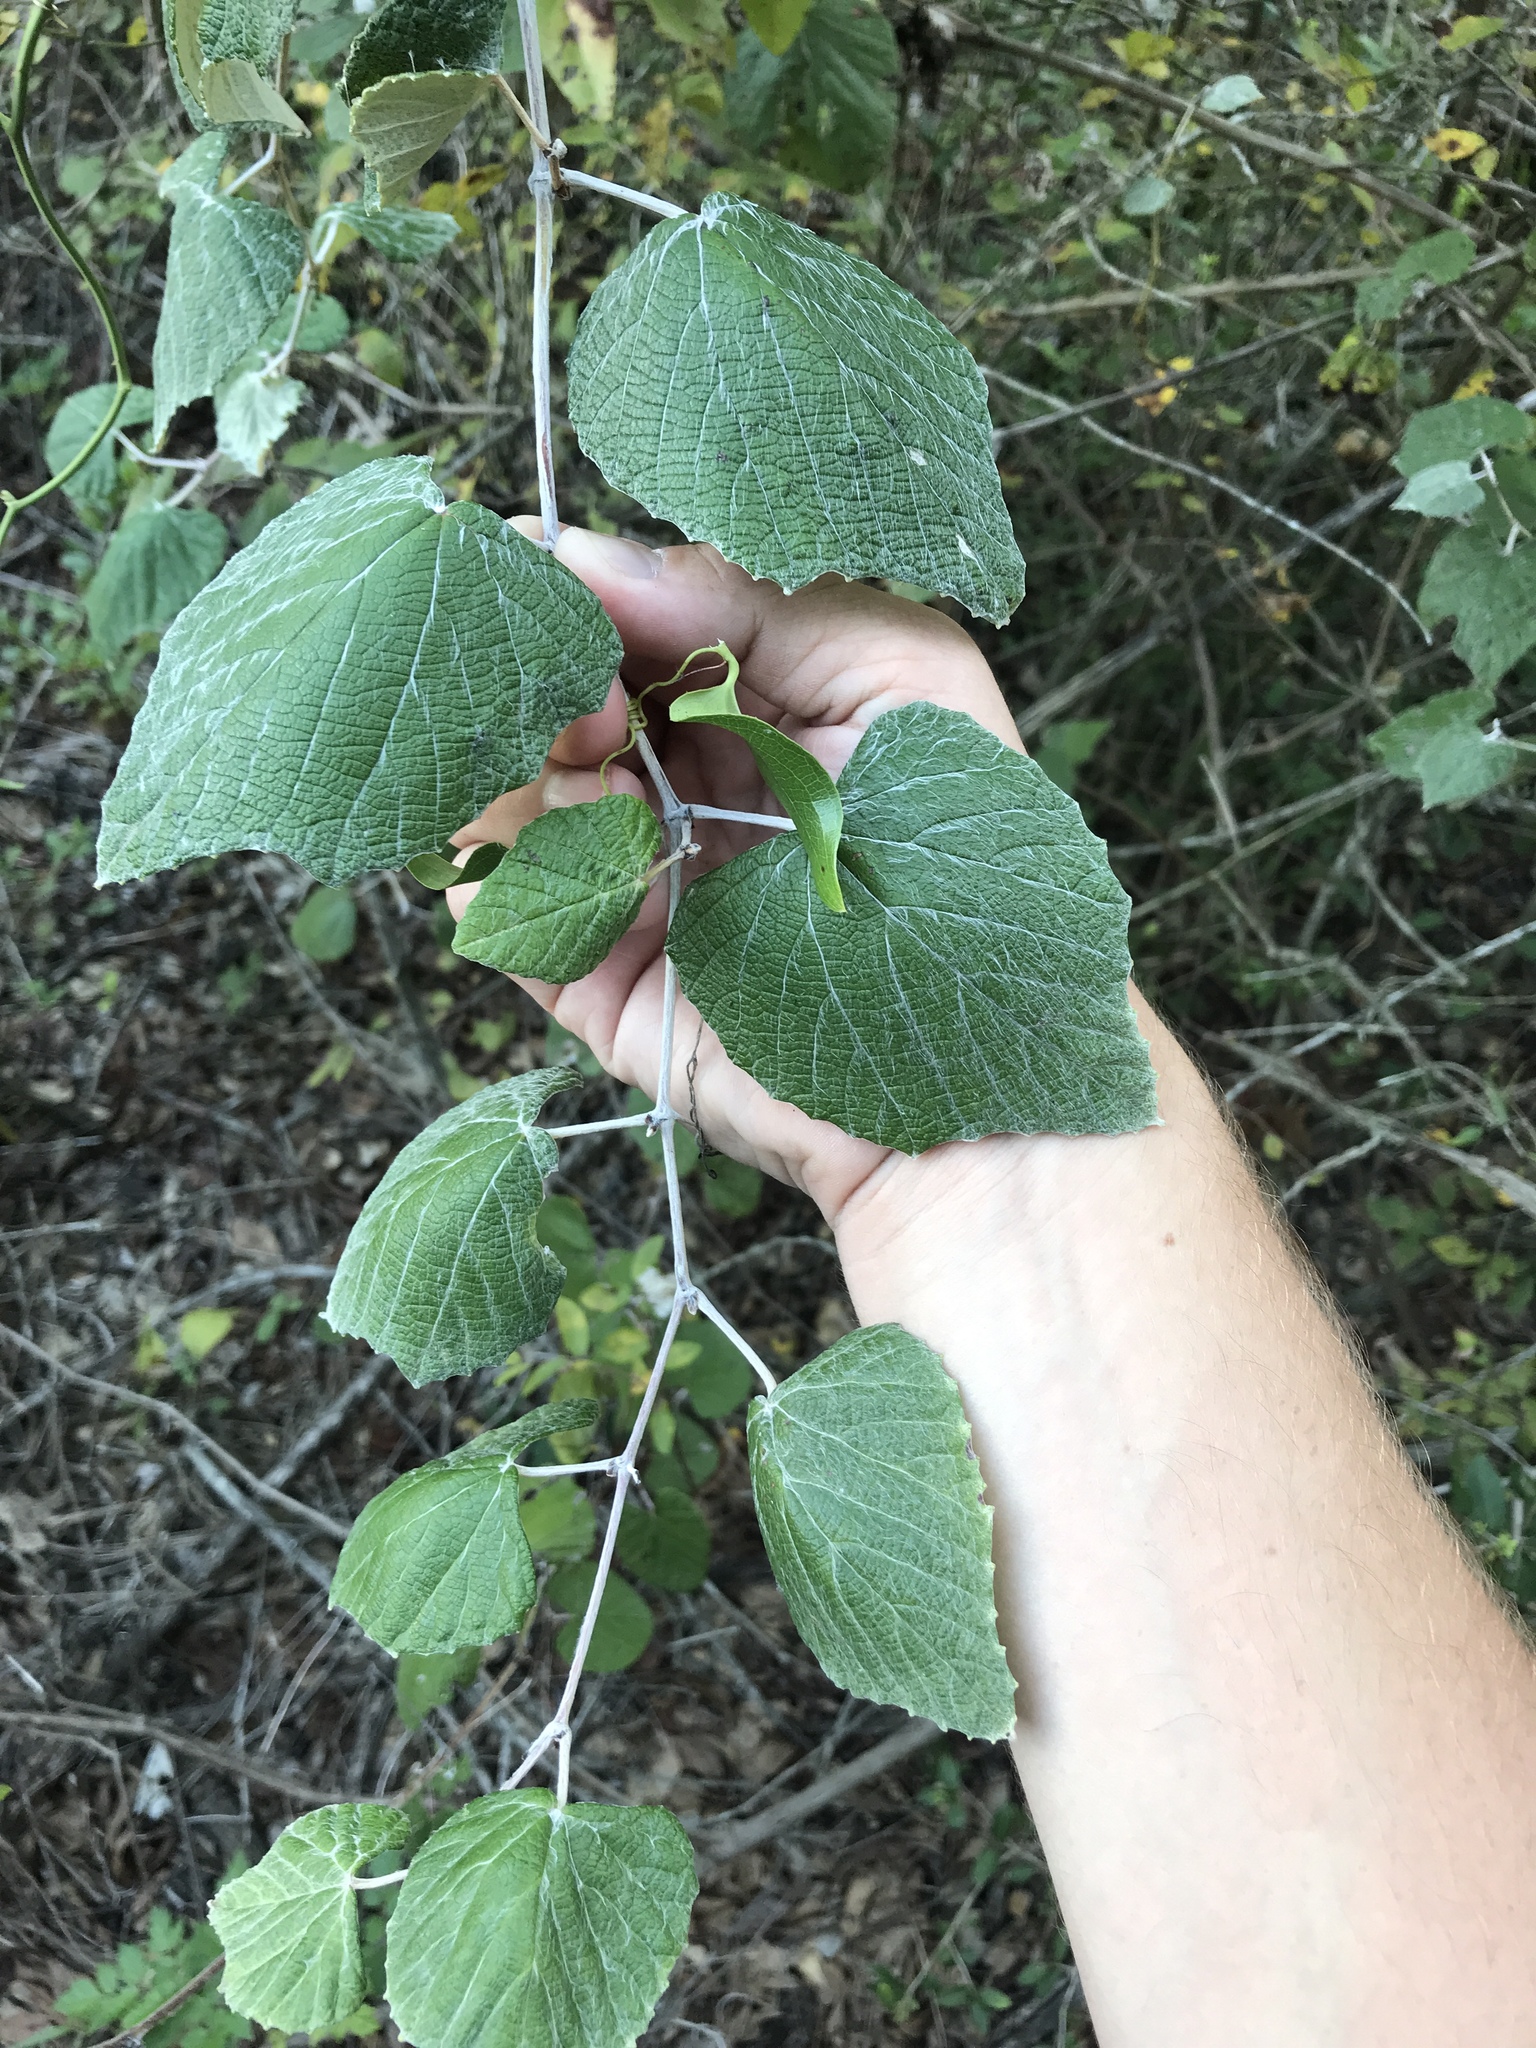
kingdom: Plantae
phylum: Tracheophyta
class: Magnoliopsida
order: Vitales
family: Vitaceae
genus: Vitis
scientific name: Vitis mustangensis
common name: Mustang grape
